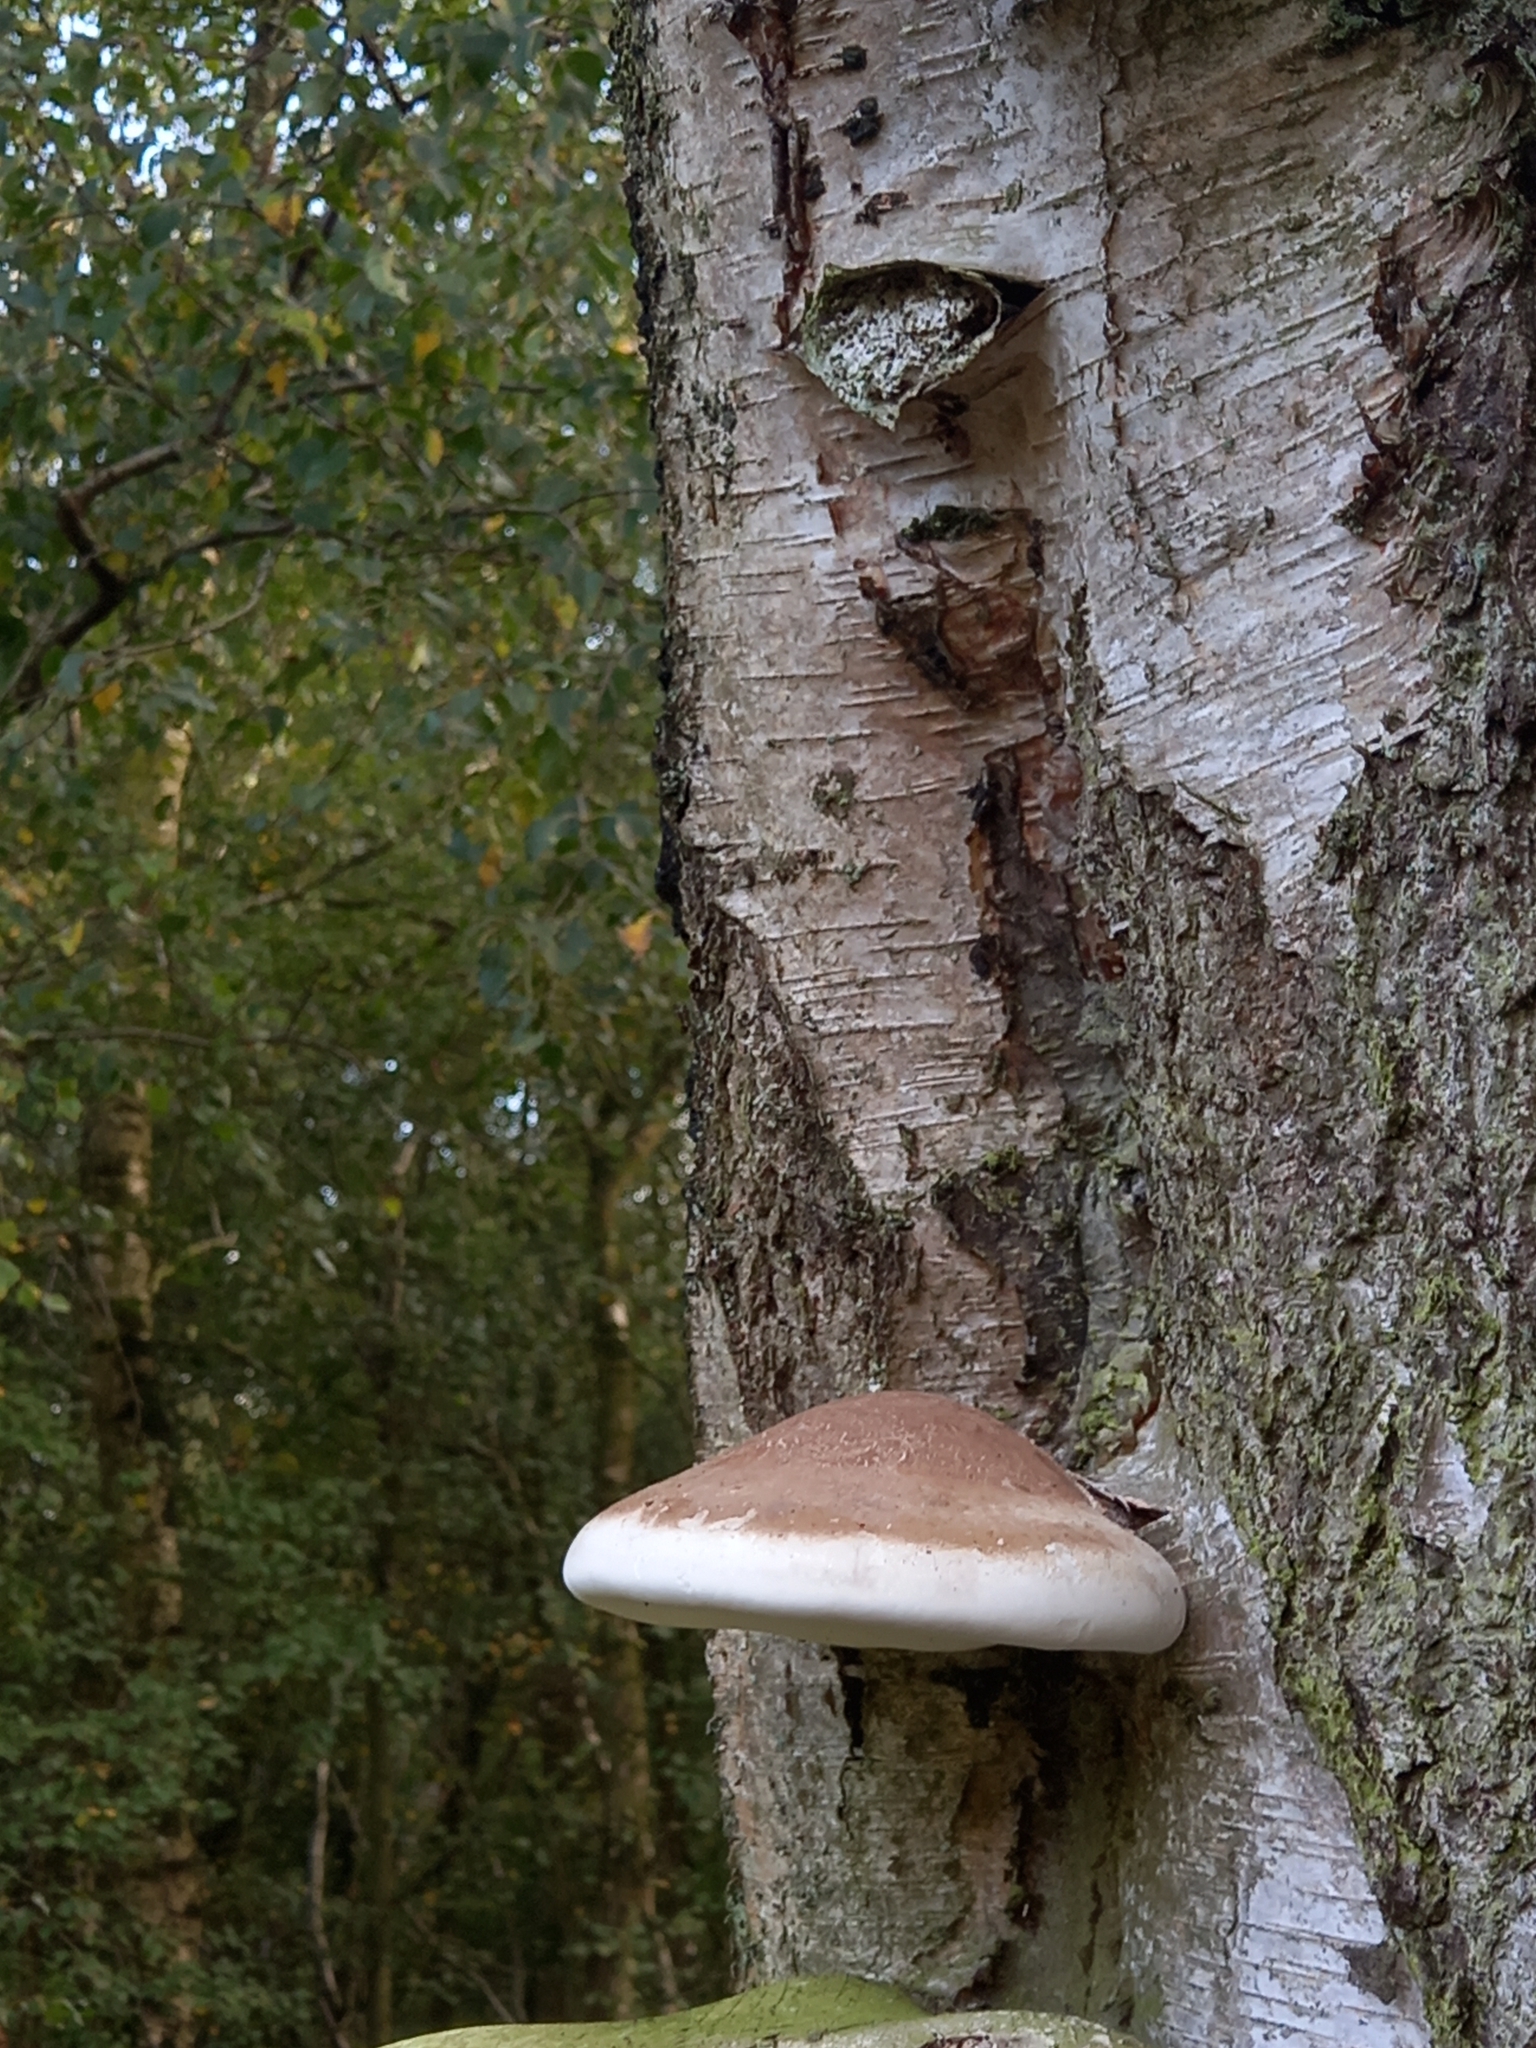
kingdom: Fungi
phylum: Basidiomycota
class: Agaricomycetes
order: Polyporales
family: Fomitopsidaceae
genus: Fomitopsis
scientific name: Fomitopsis betulina
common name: Birch polypore
